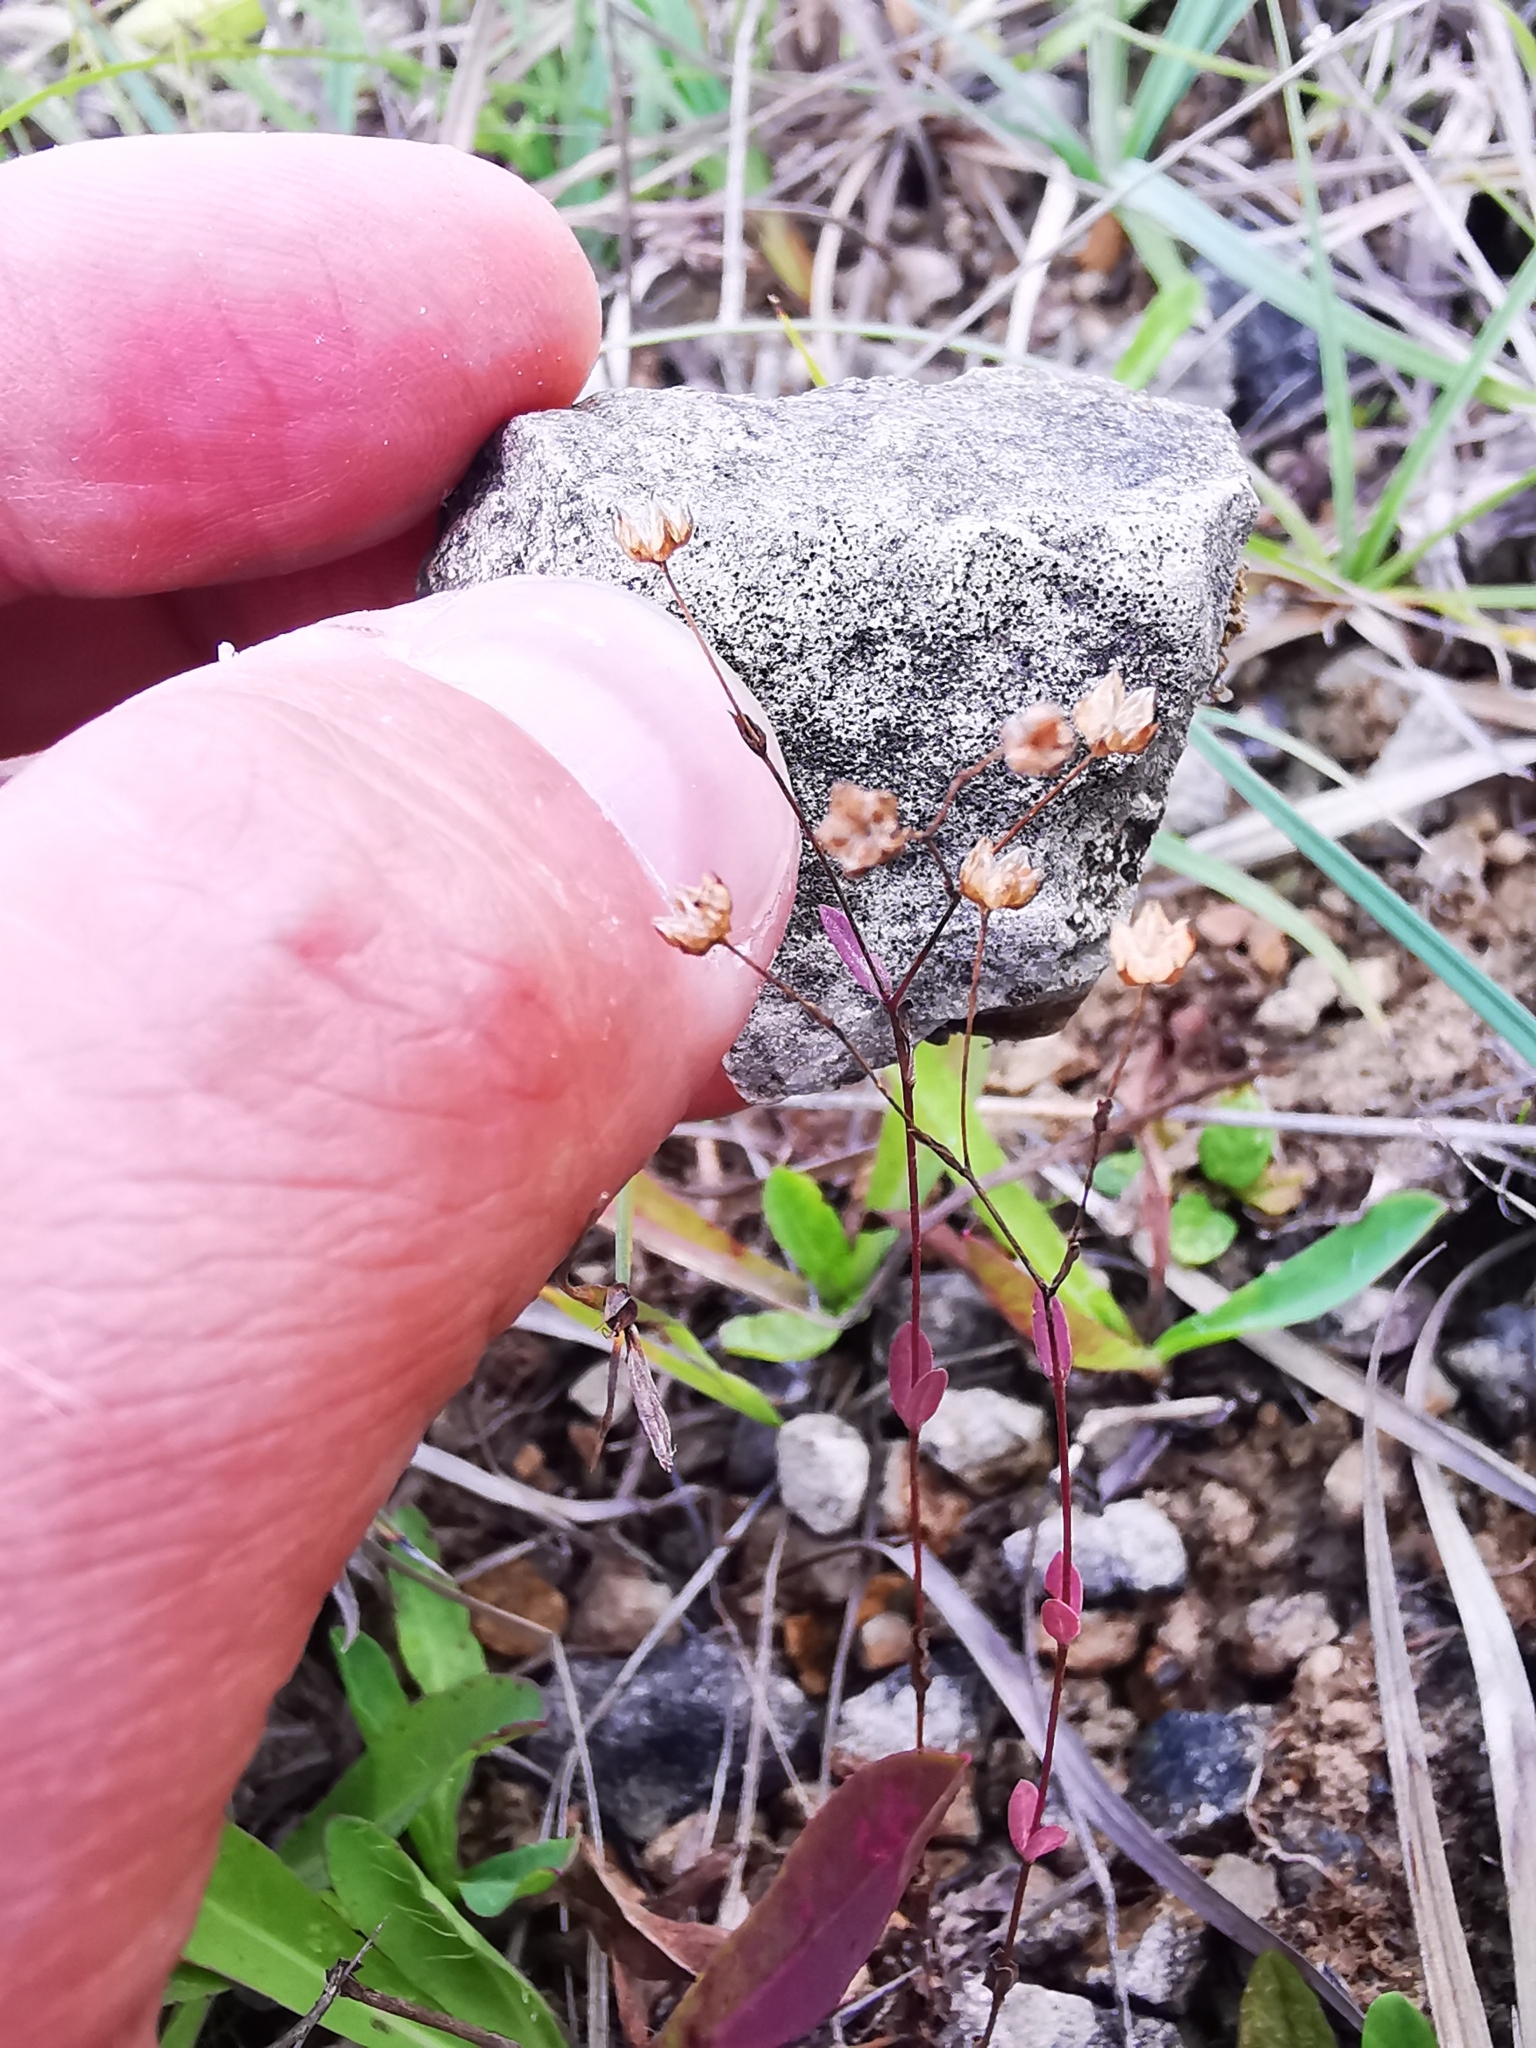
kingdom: Plantae
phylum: Tracheophyta
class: Magnoliopsida
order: Malpighiales
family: Linaceae
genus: Linum
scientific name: Linum catharticum
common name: Fairy flax
